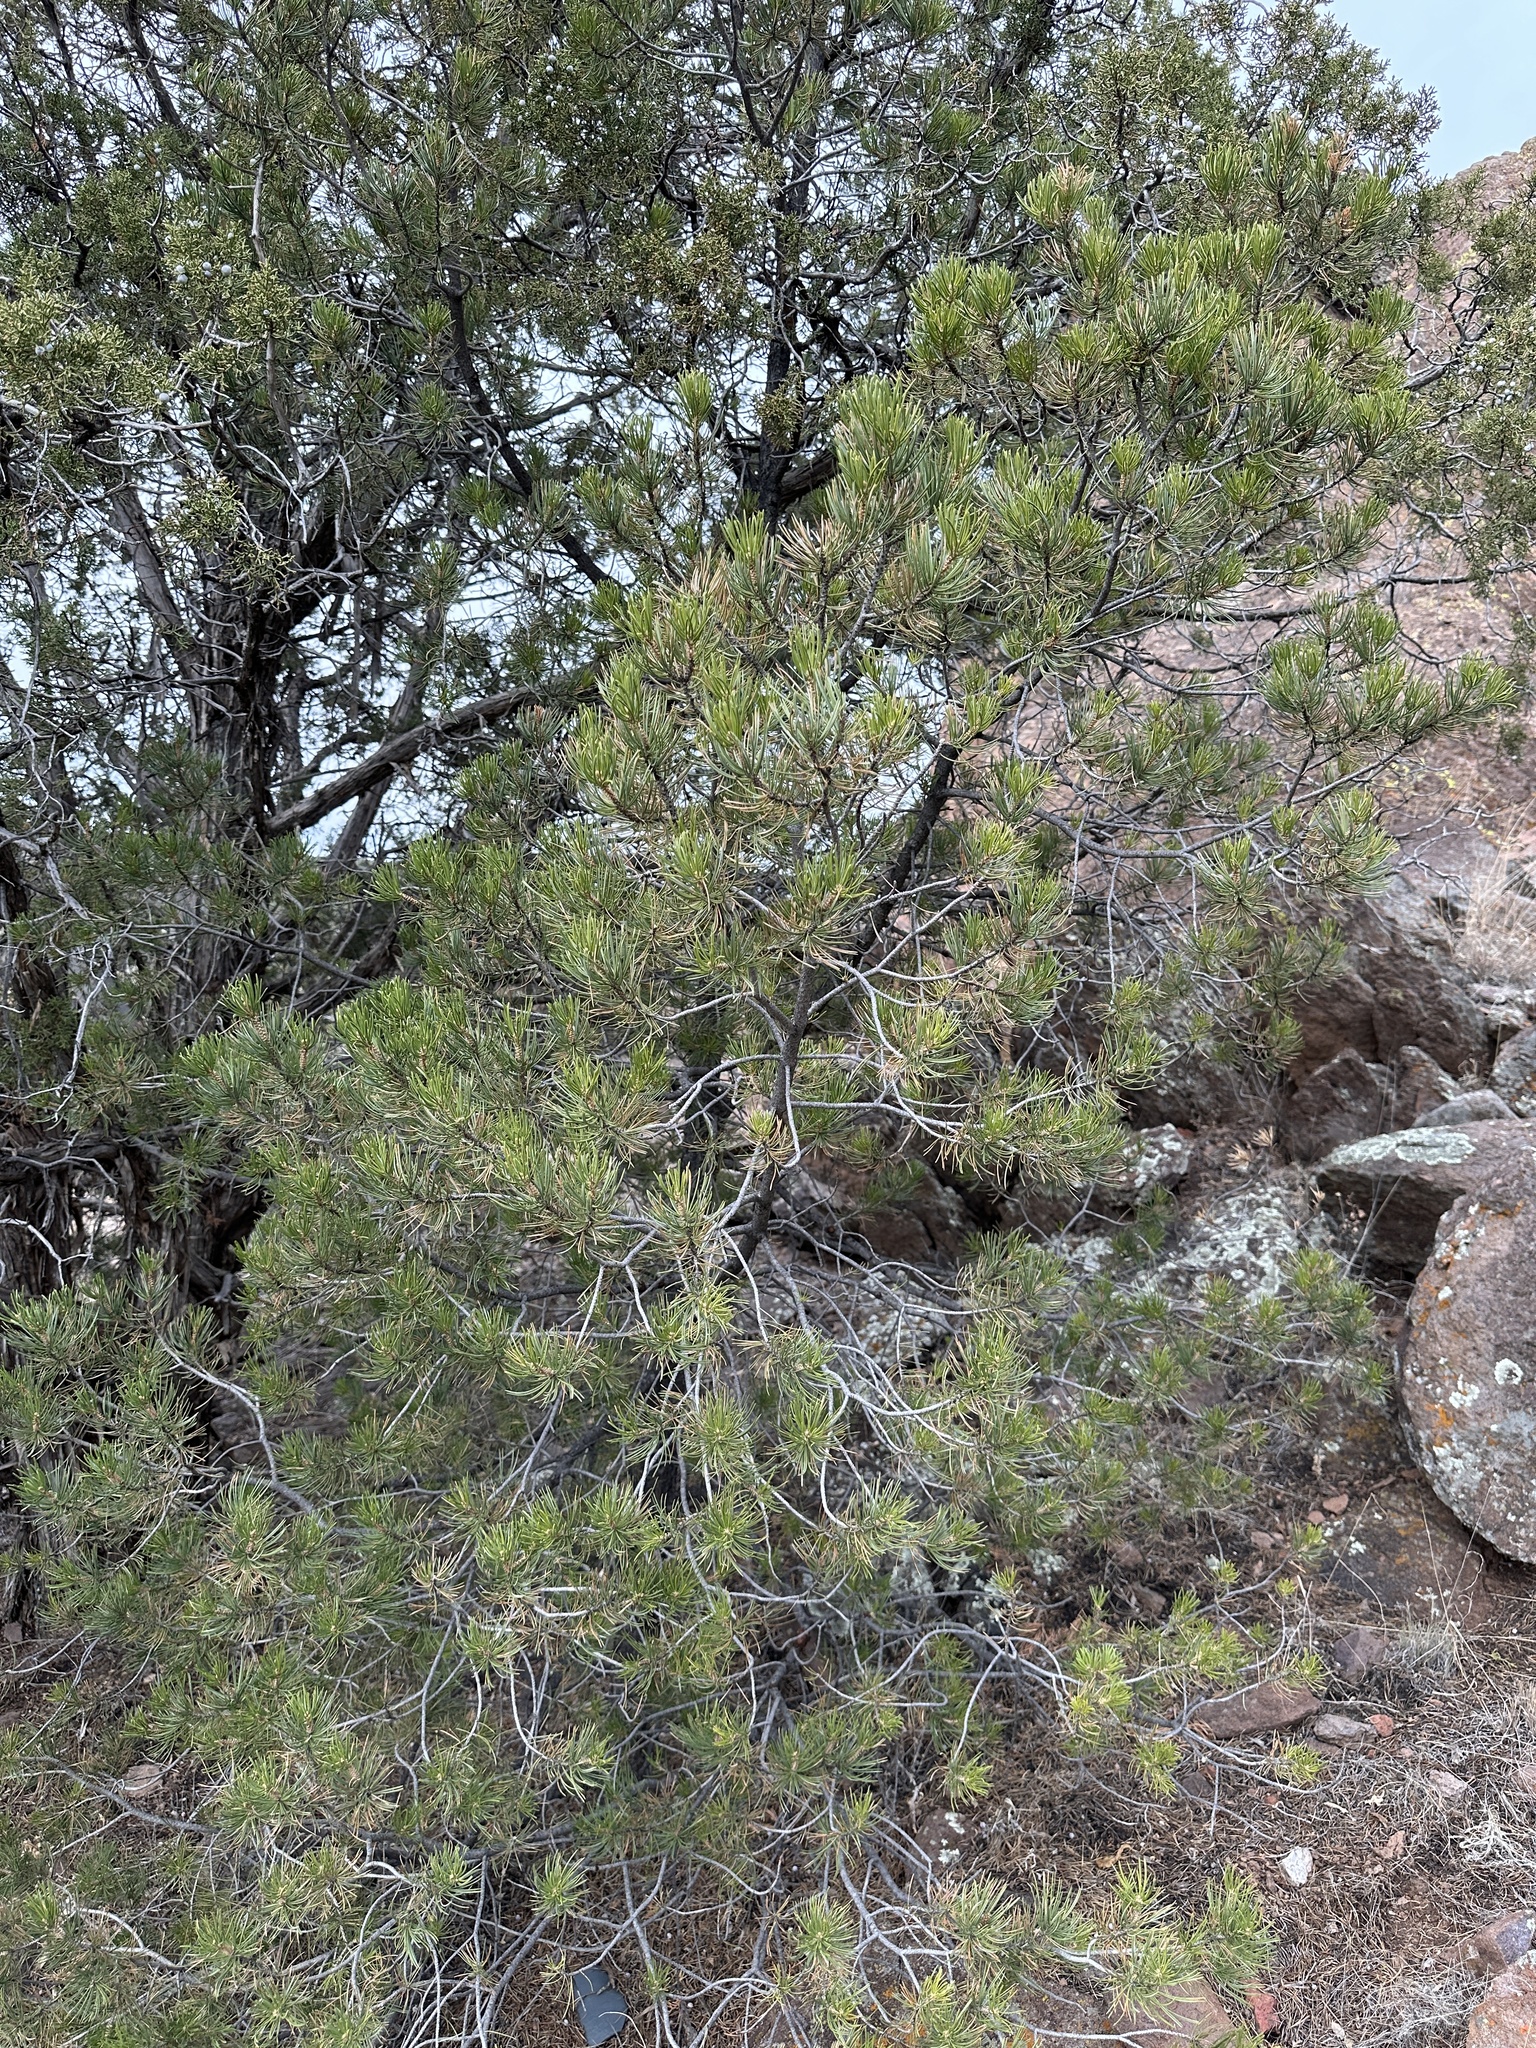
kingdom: Plantae
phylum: Tracheophyta
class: Pinopsida
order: Pinales
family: Pinaceae
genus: Pinus
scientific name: Pinus edulis
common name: Colorado pinyon
